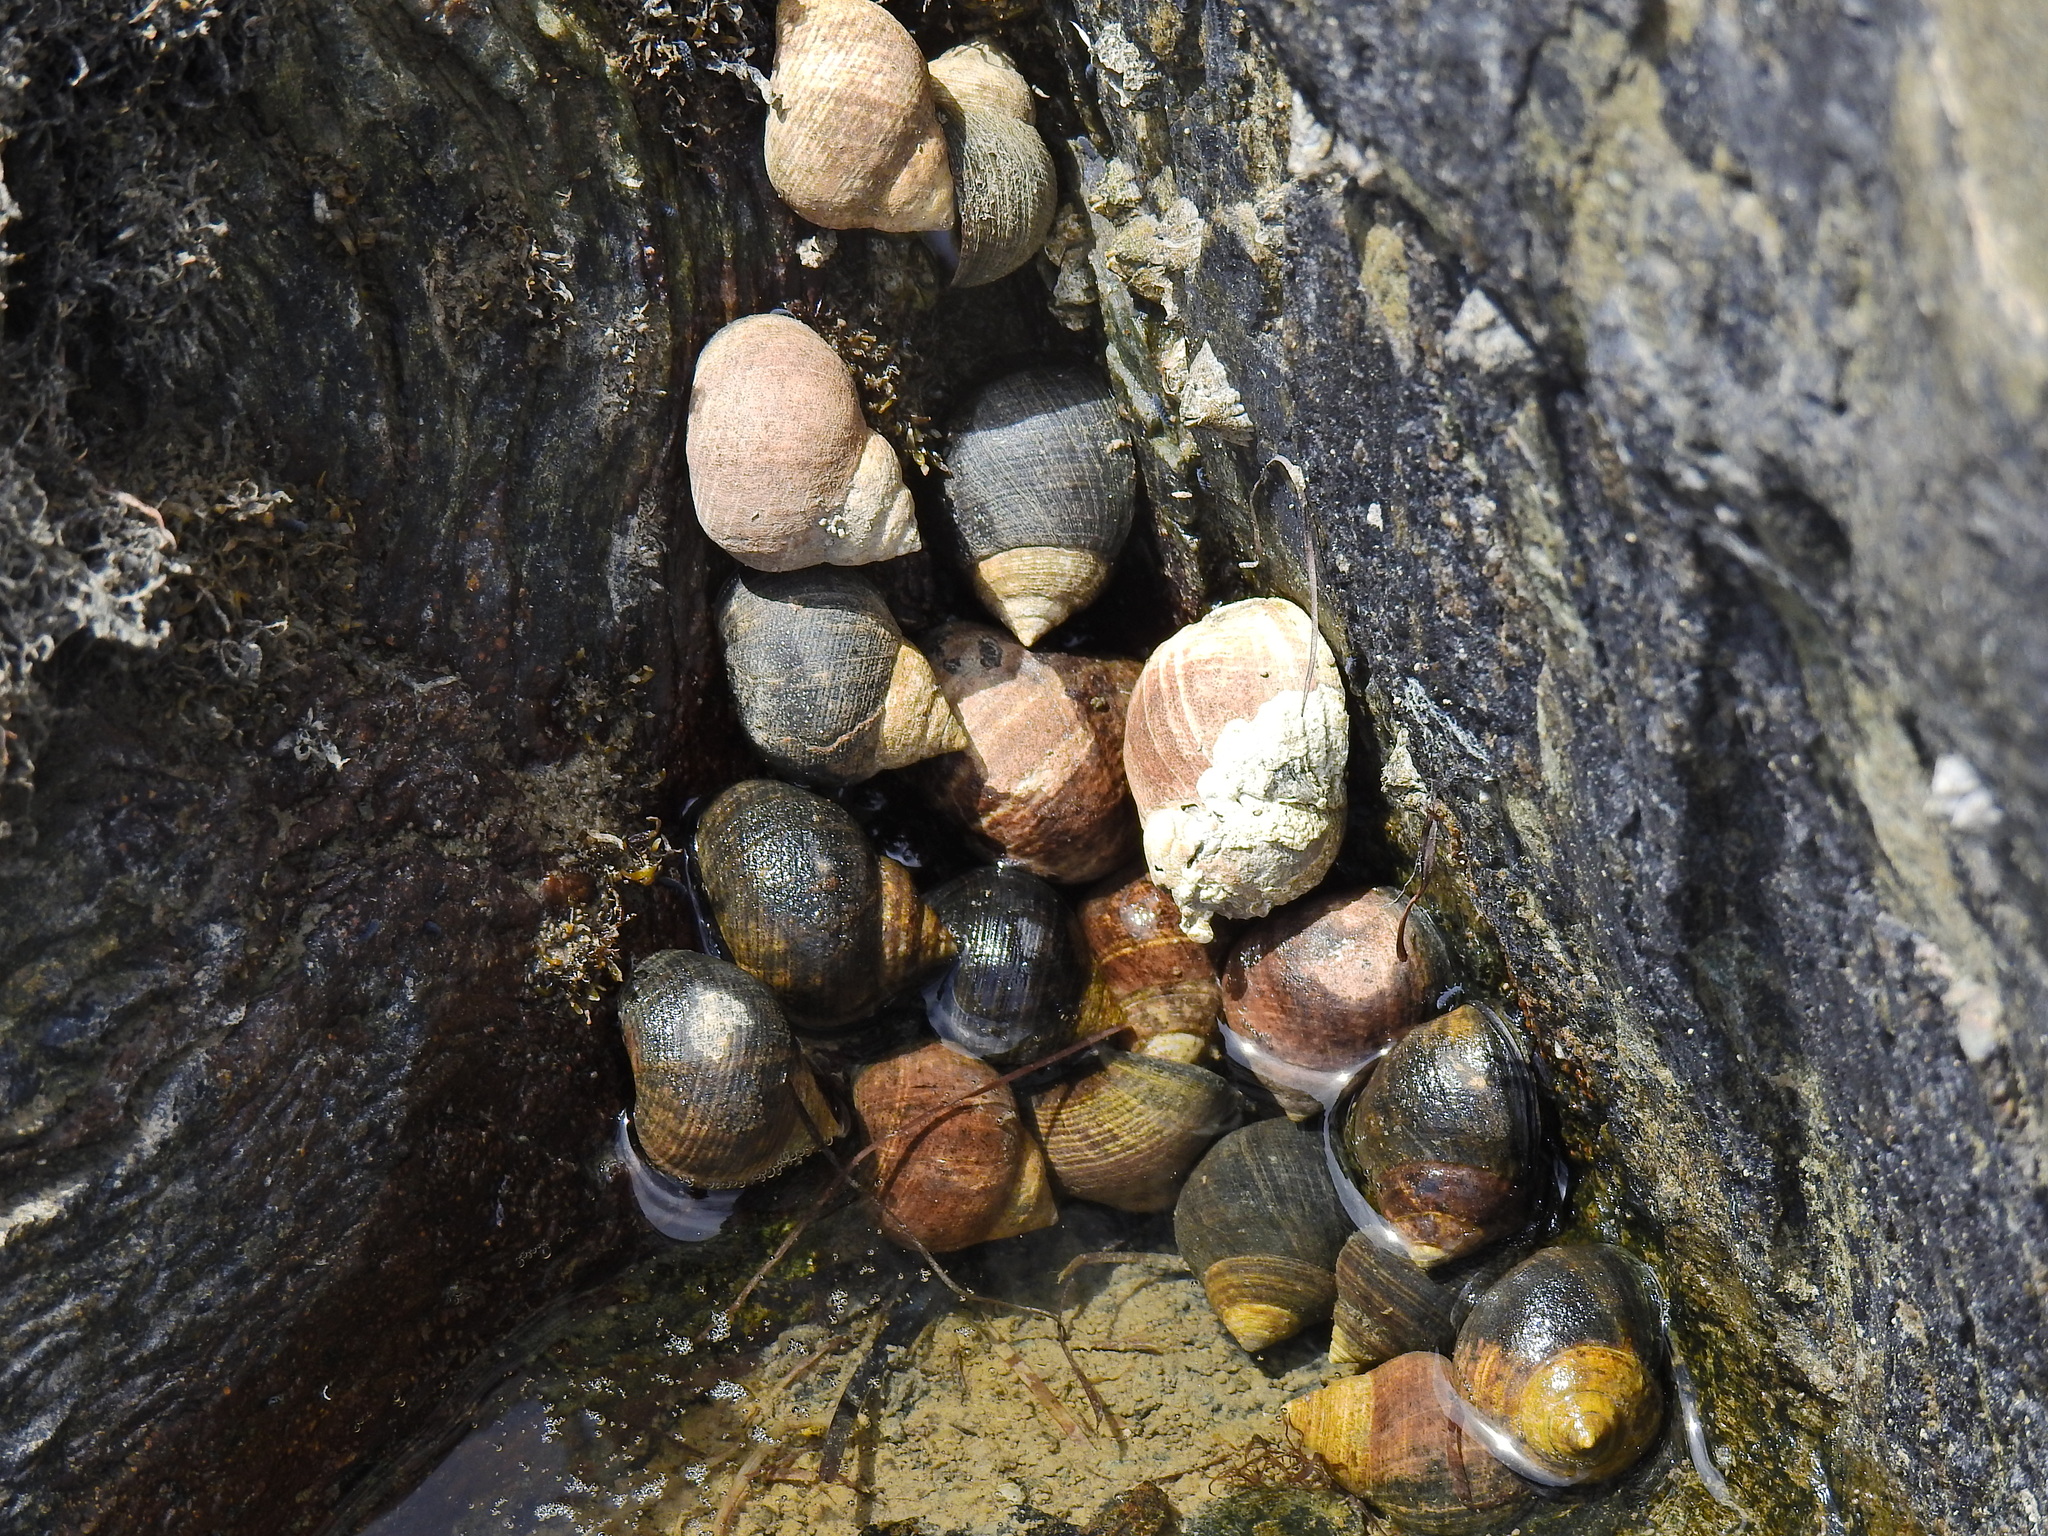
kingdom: Animalia
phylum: Mollusca
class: Gastropoda
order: Littorinimorpha
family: Littorinidae
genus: Littorina
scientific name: Littorina littorea
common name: Common periwinkle
